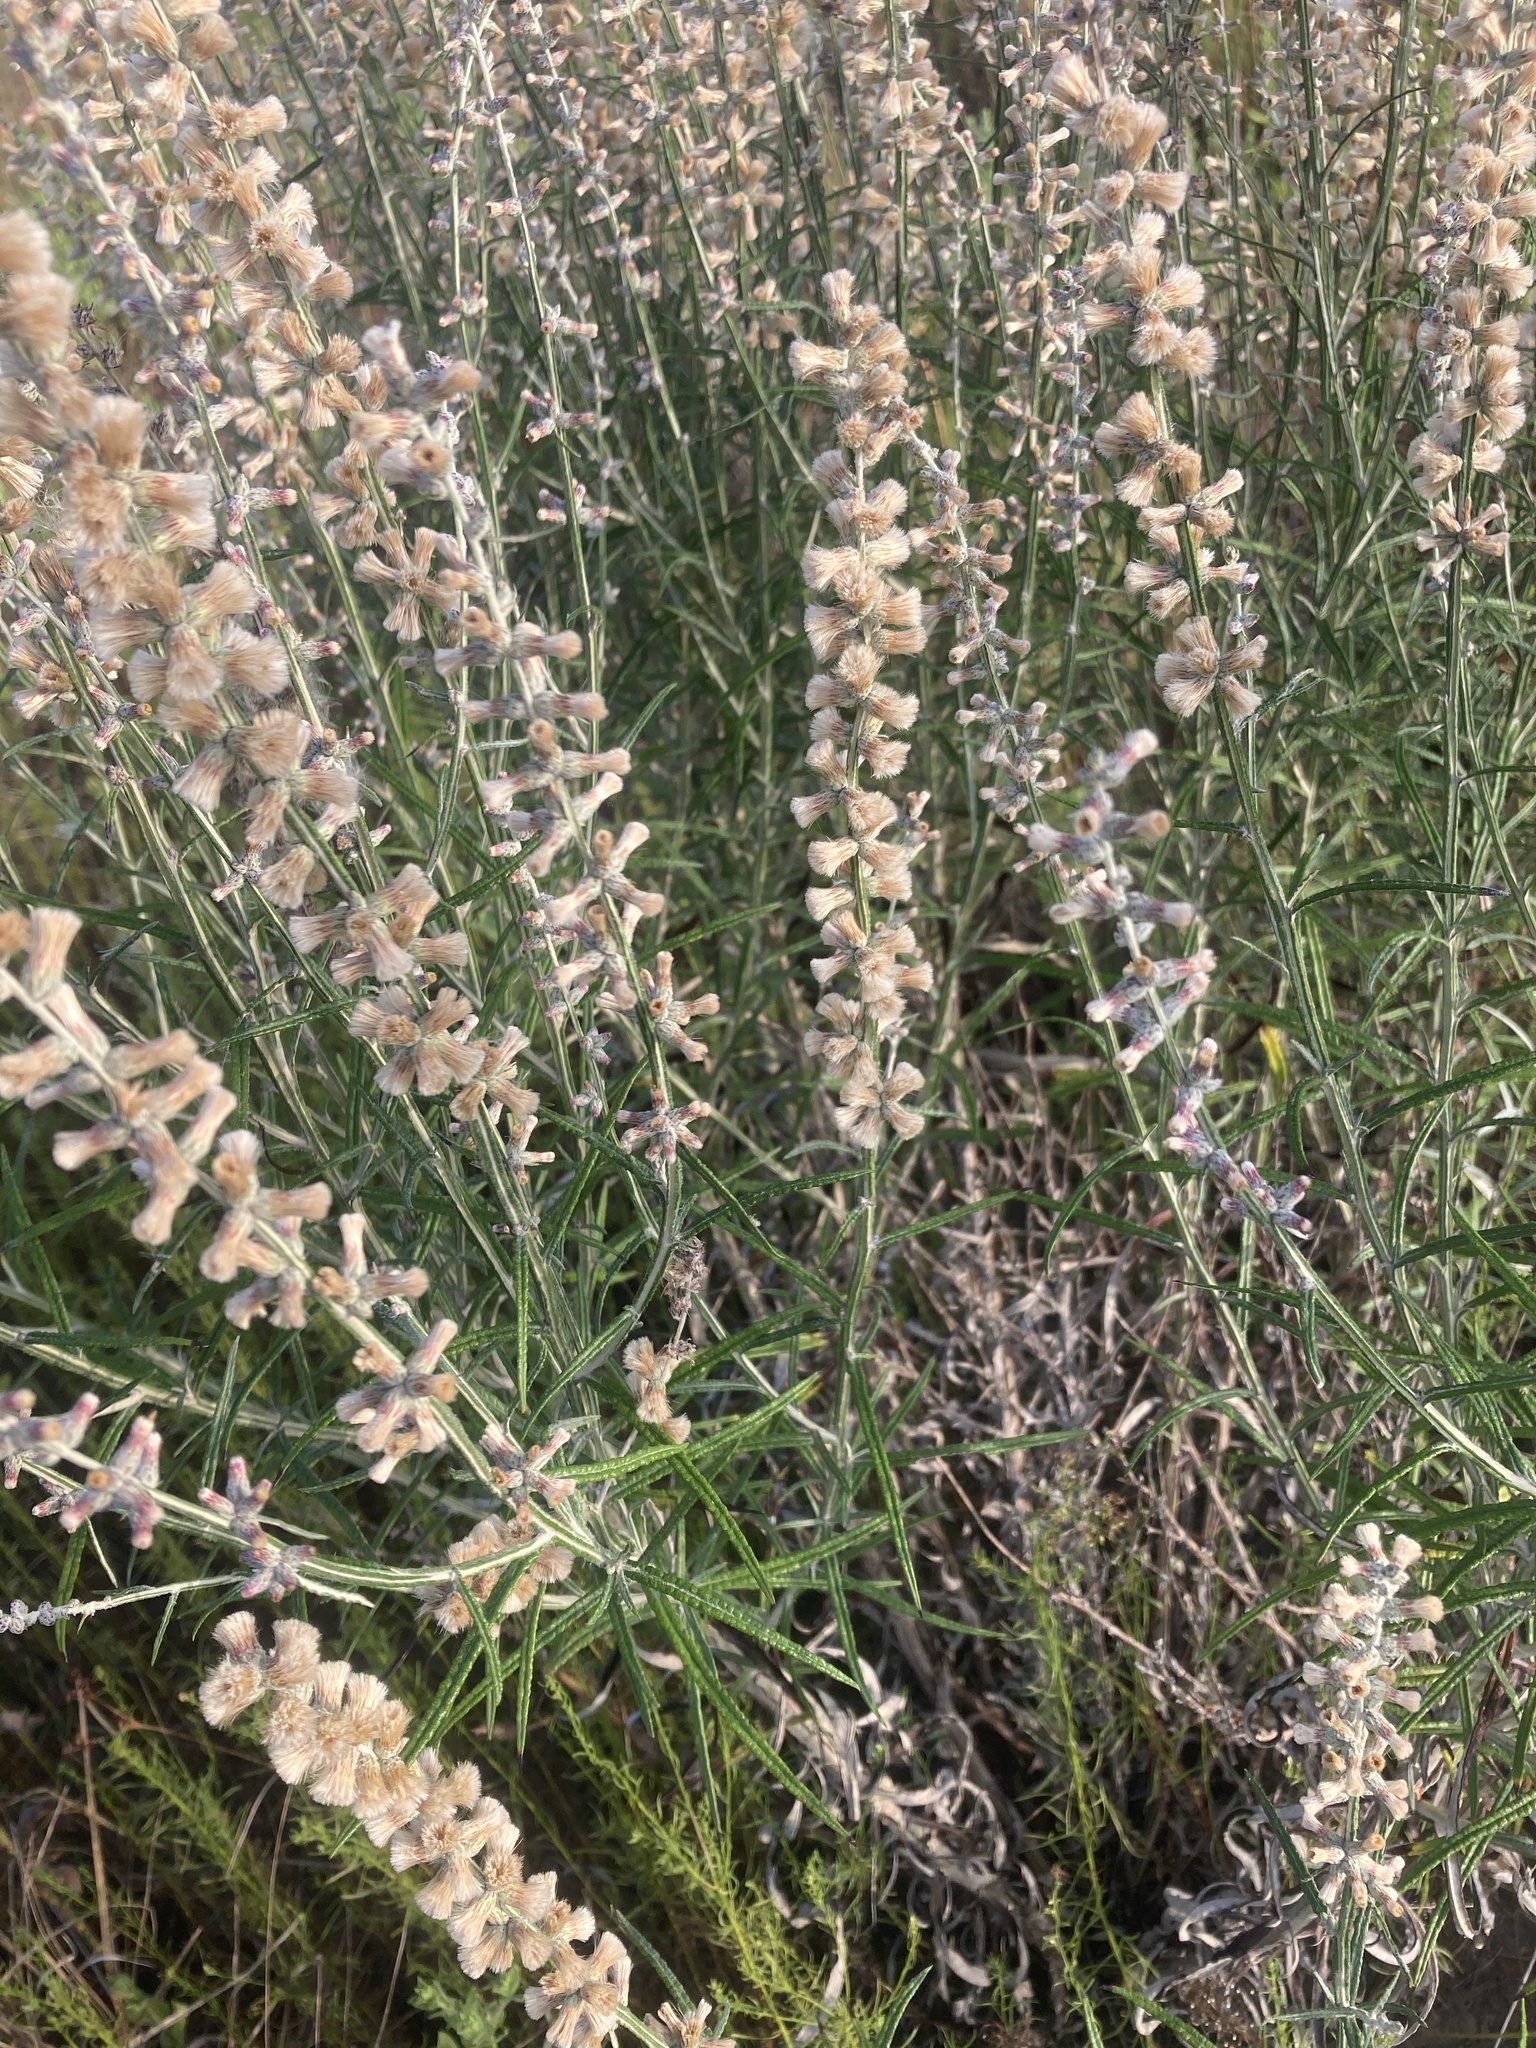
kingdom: Plantae
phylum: Tracheophyta
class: Magnoliopsida
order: Asterales
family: Asteraceae
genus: Pterocaulon
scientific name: Pterocaulon virgatum
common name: Wand blackroot
